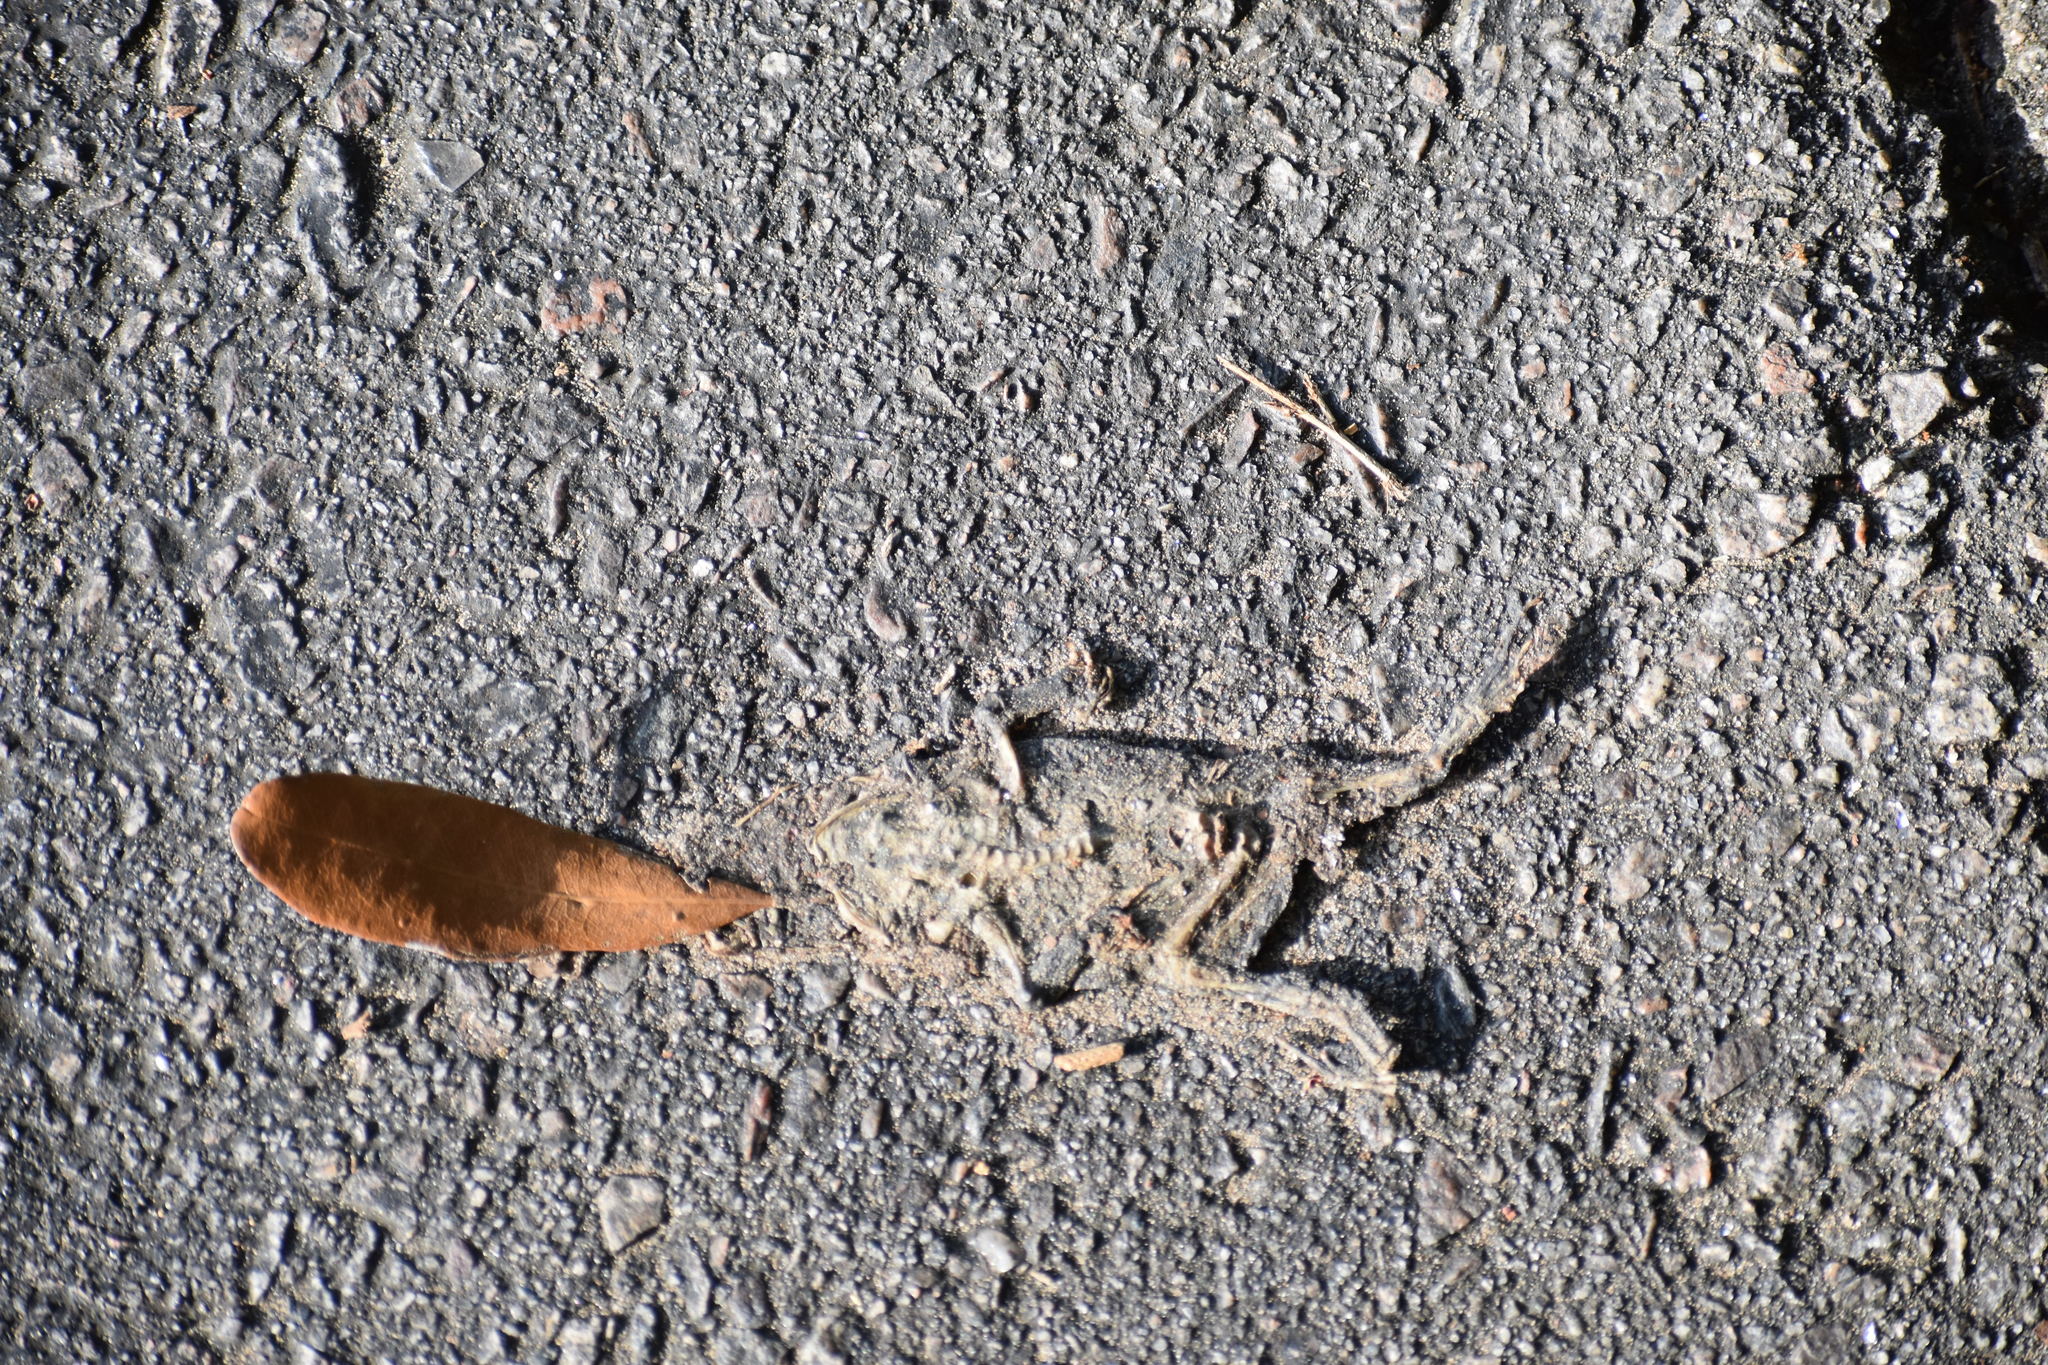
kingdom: Animalia
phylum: Chordata
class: Amphibia
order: Anura
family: Bufonidae
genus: Anaxyrus
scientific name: Anaxyrus terrestris
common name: Southern toad
